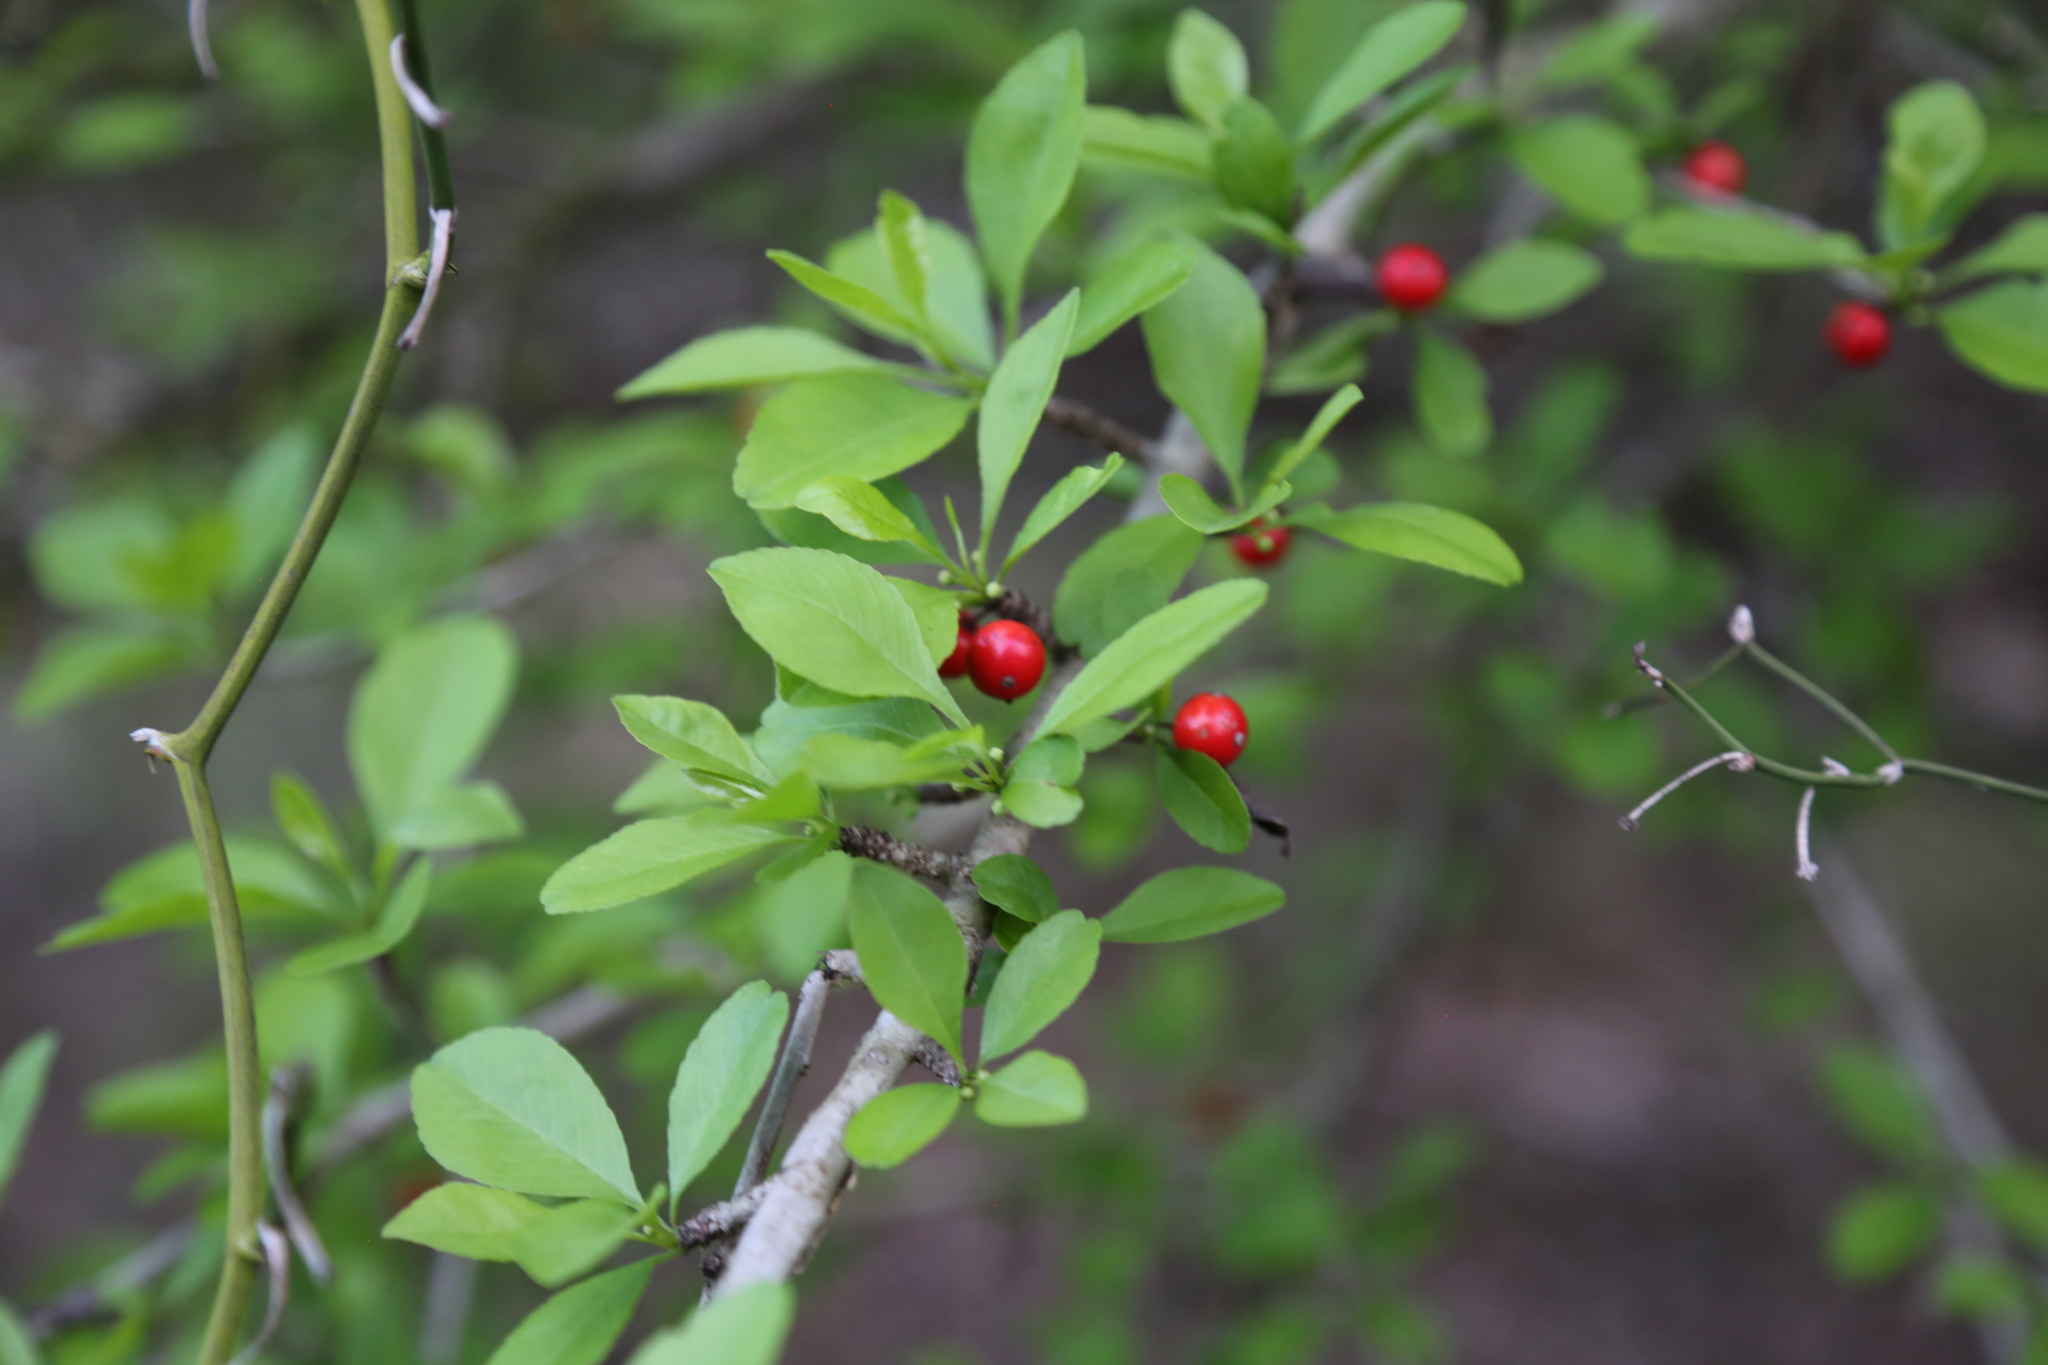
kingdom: Plantae
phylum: Tracheophyta
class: Magnoliopsida
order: Aquifoliales
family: Aquifoliaceae
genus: Ilex
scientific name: Ilex decidua
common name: Possum-haw
